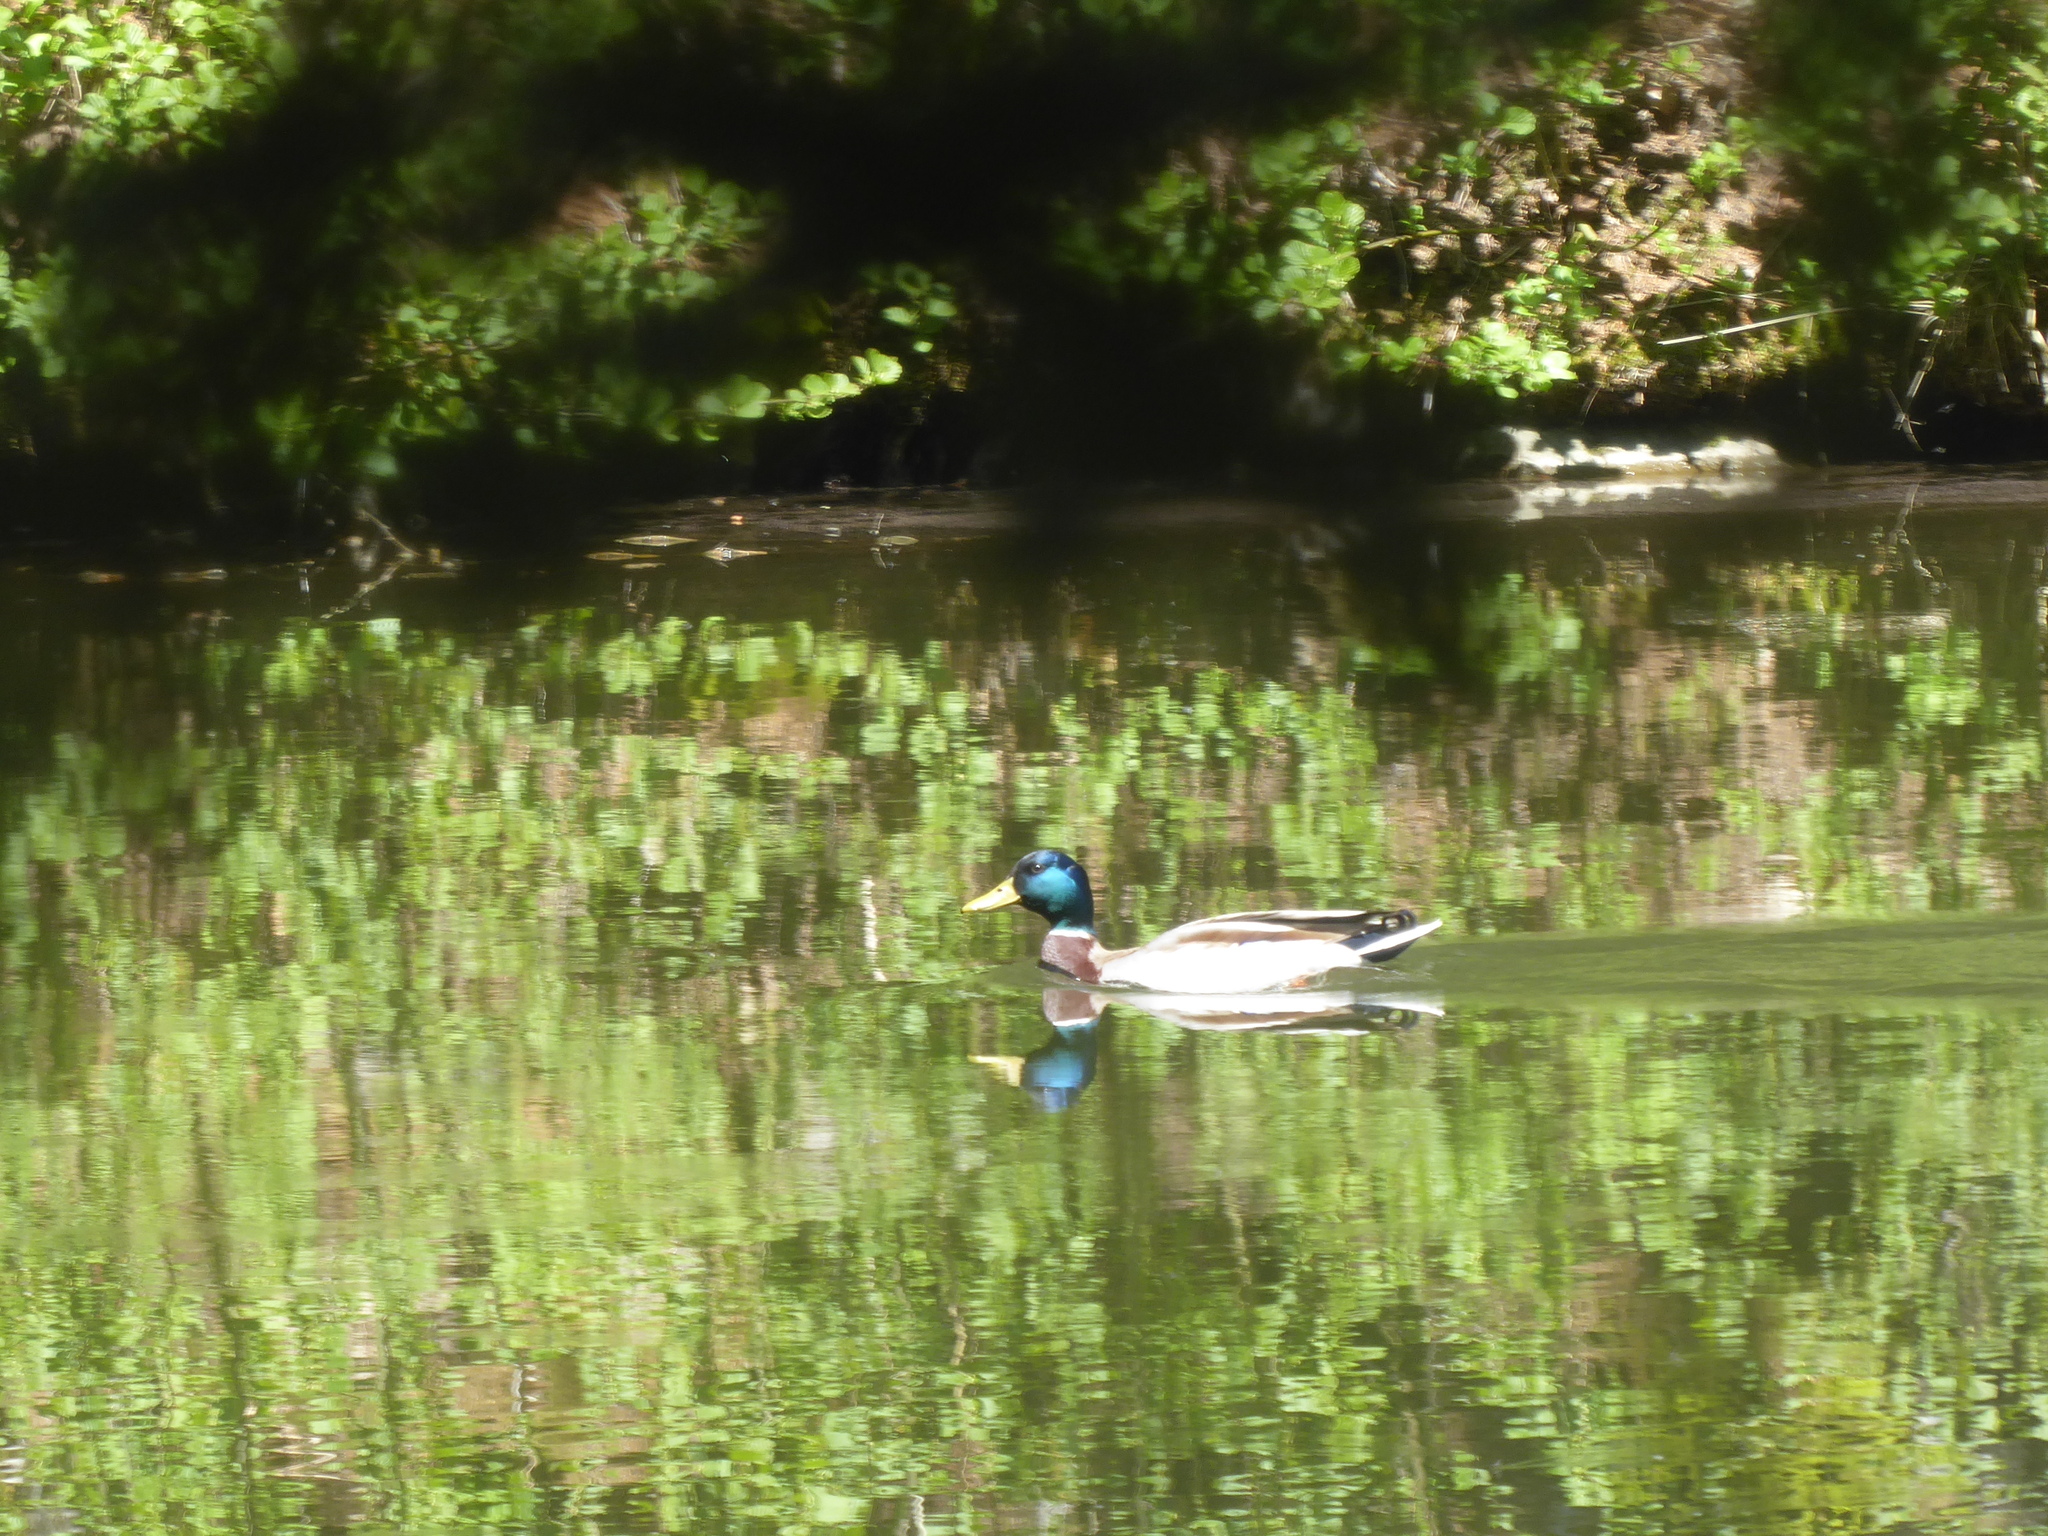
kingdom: Animalia
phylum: Chordata
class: Aves
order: Anseriformes
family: Anatidae
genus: Anas
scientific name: Anas platyrhynchos
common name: Mallard
